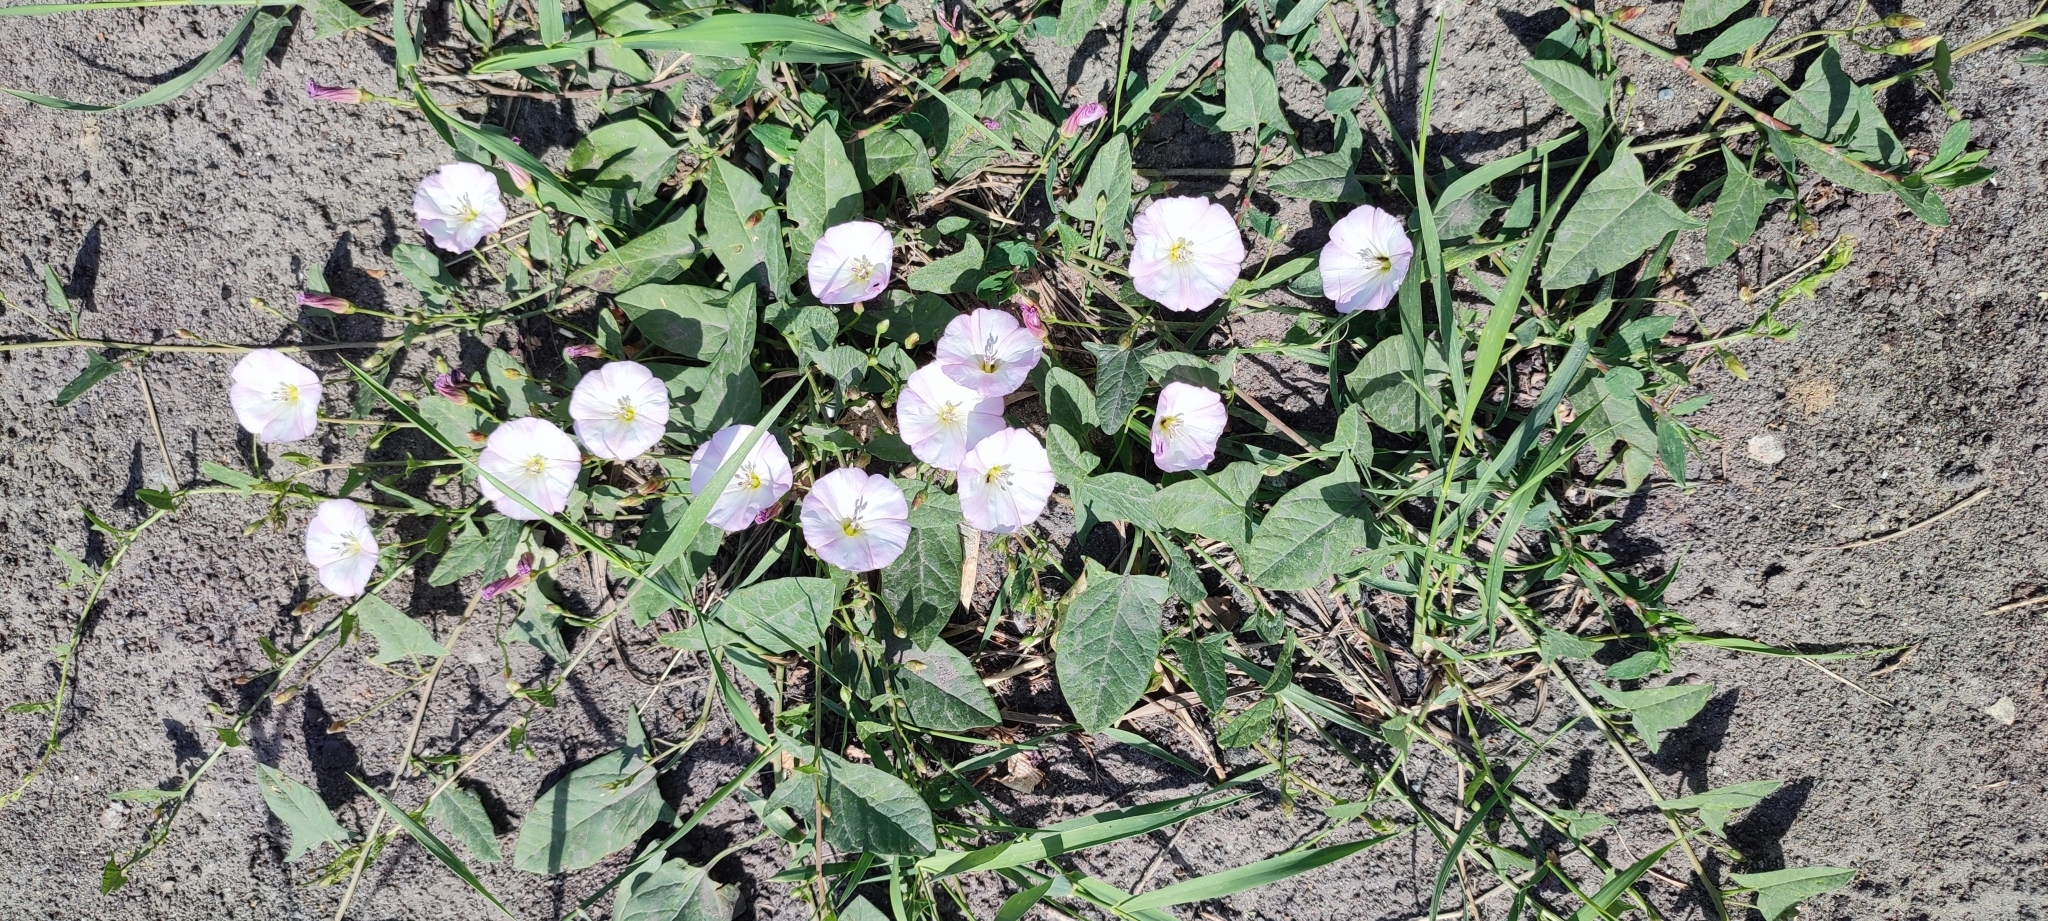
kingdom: Plantae
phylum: Tracheophyta
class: Magnoliopsida
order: Solanales
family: Convolvulaceae
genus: Convolvulus
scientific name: Convolvulus arvensis
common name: Field bindweed
